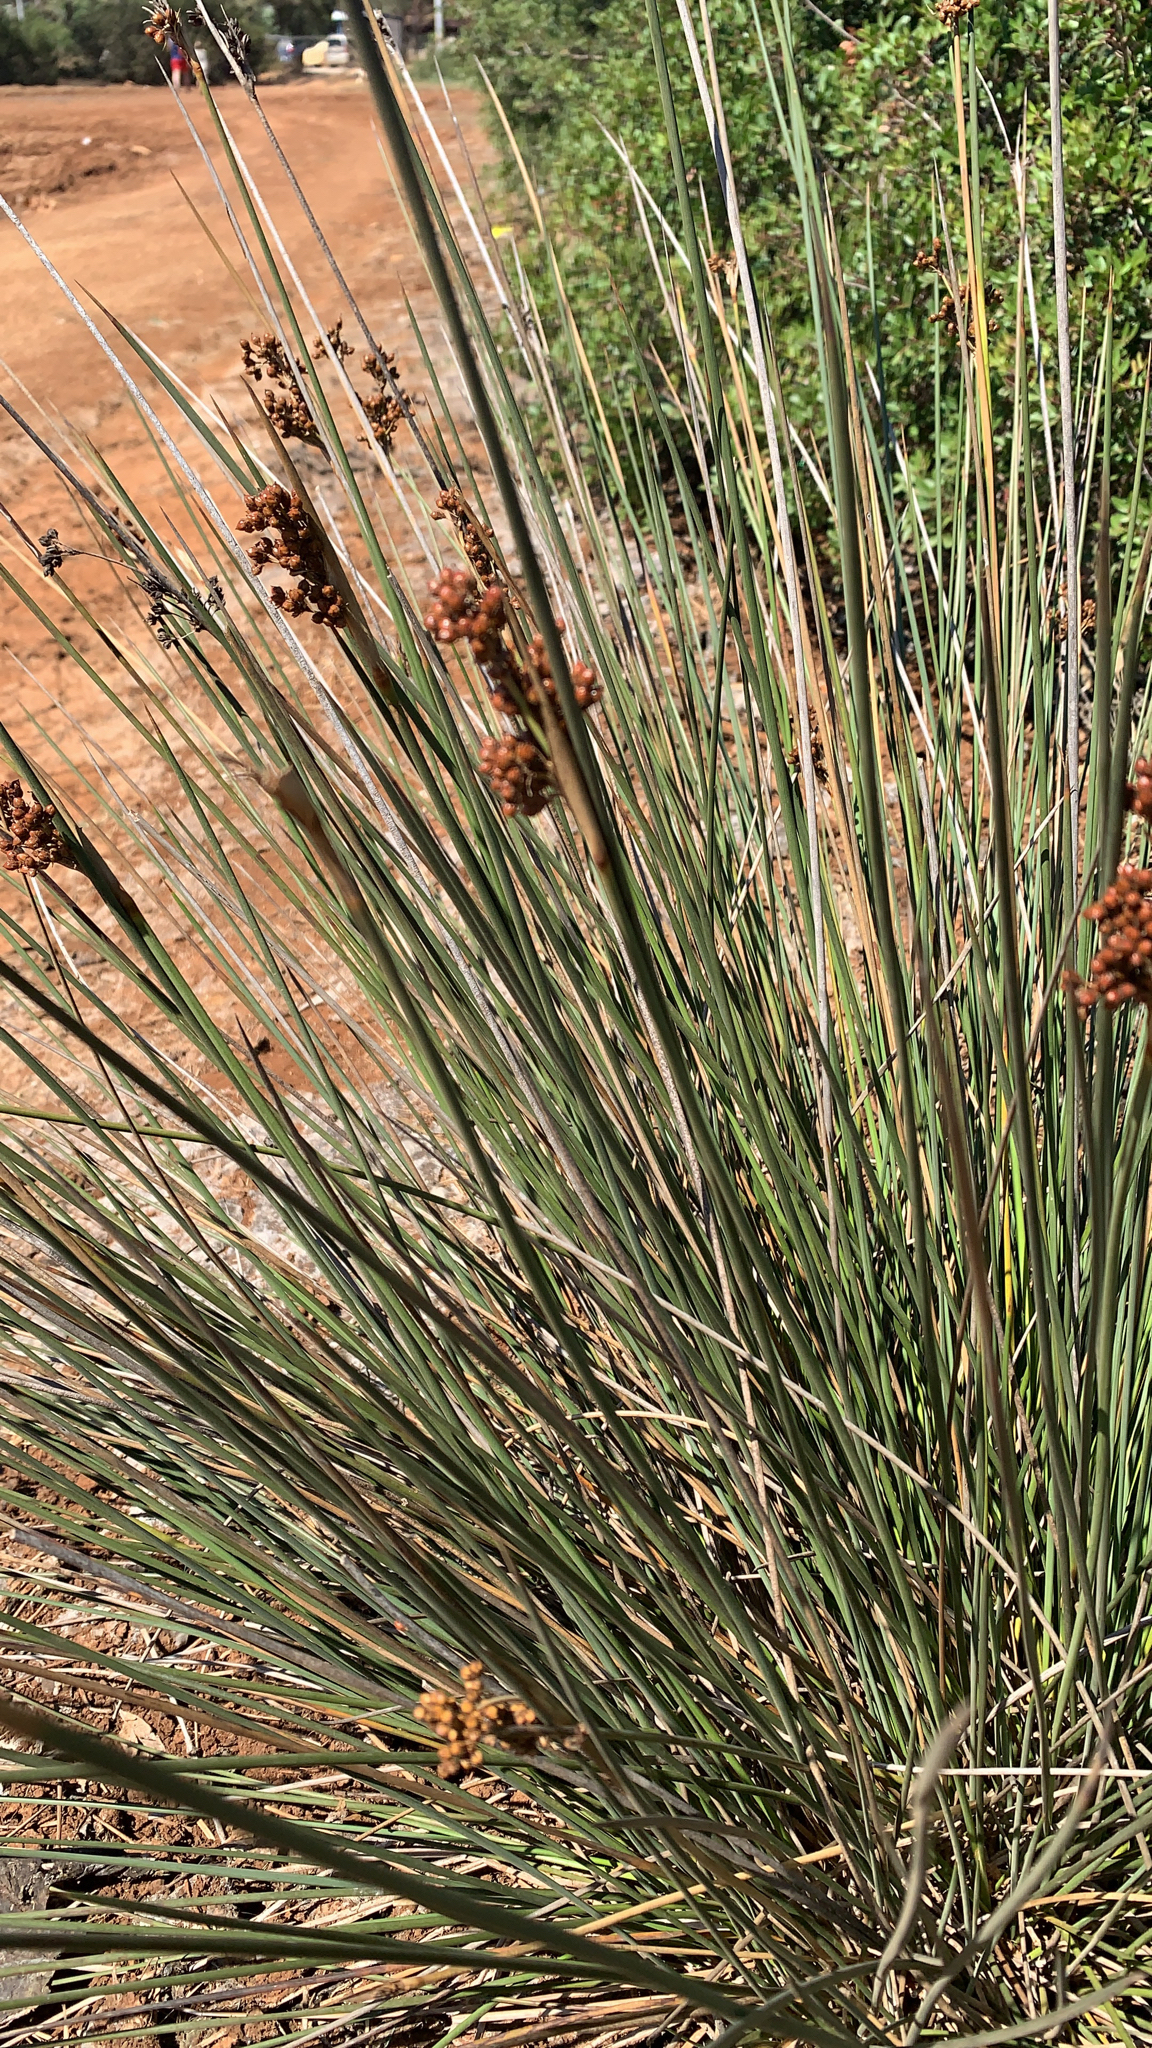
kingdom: Plantae
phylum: Tracheophyta
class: Liliopsida
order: Poales
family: Juncaceae
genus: Juncus
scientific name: Juncus acutus
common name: Sharp rush
